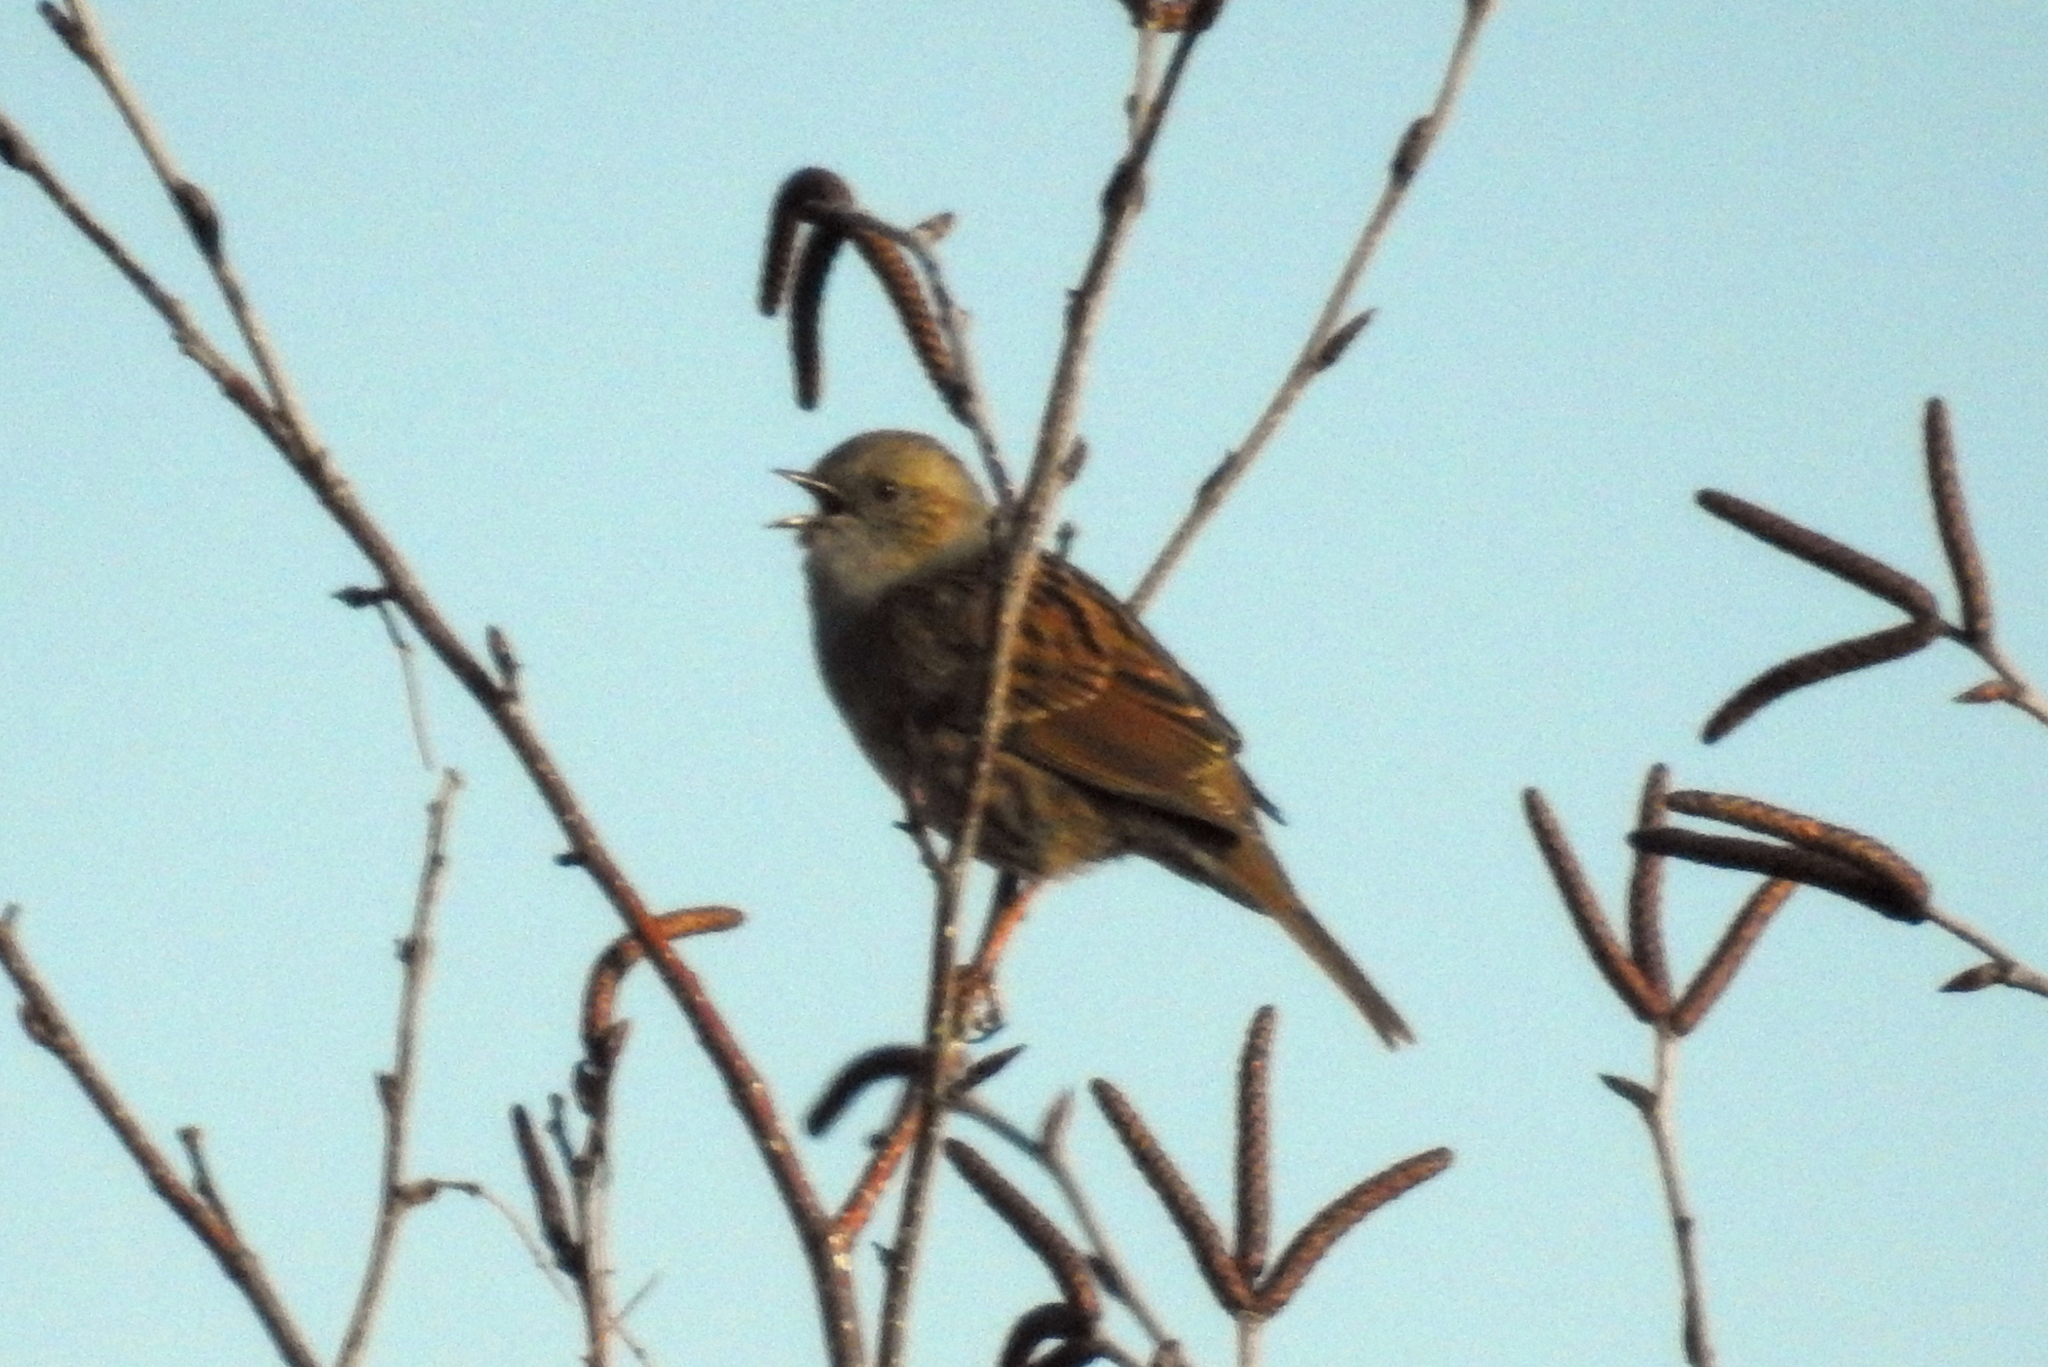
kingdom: Animalia
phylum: Chordata
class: Aves
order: Passeriformes
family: Prunellidae
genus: Prunella
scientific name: Prunella modularis
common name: Dunnock
